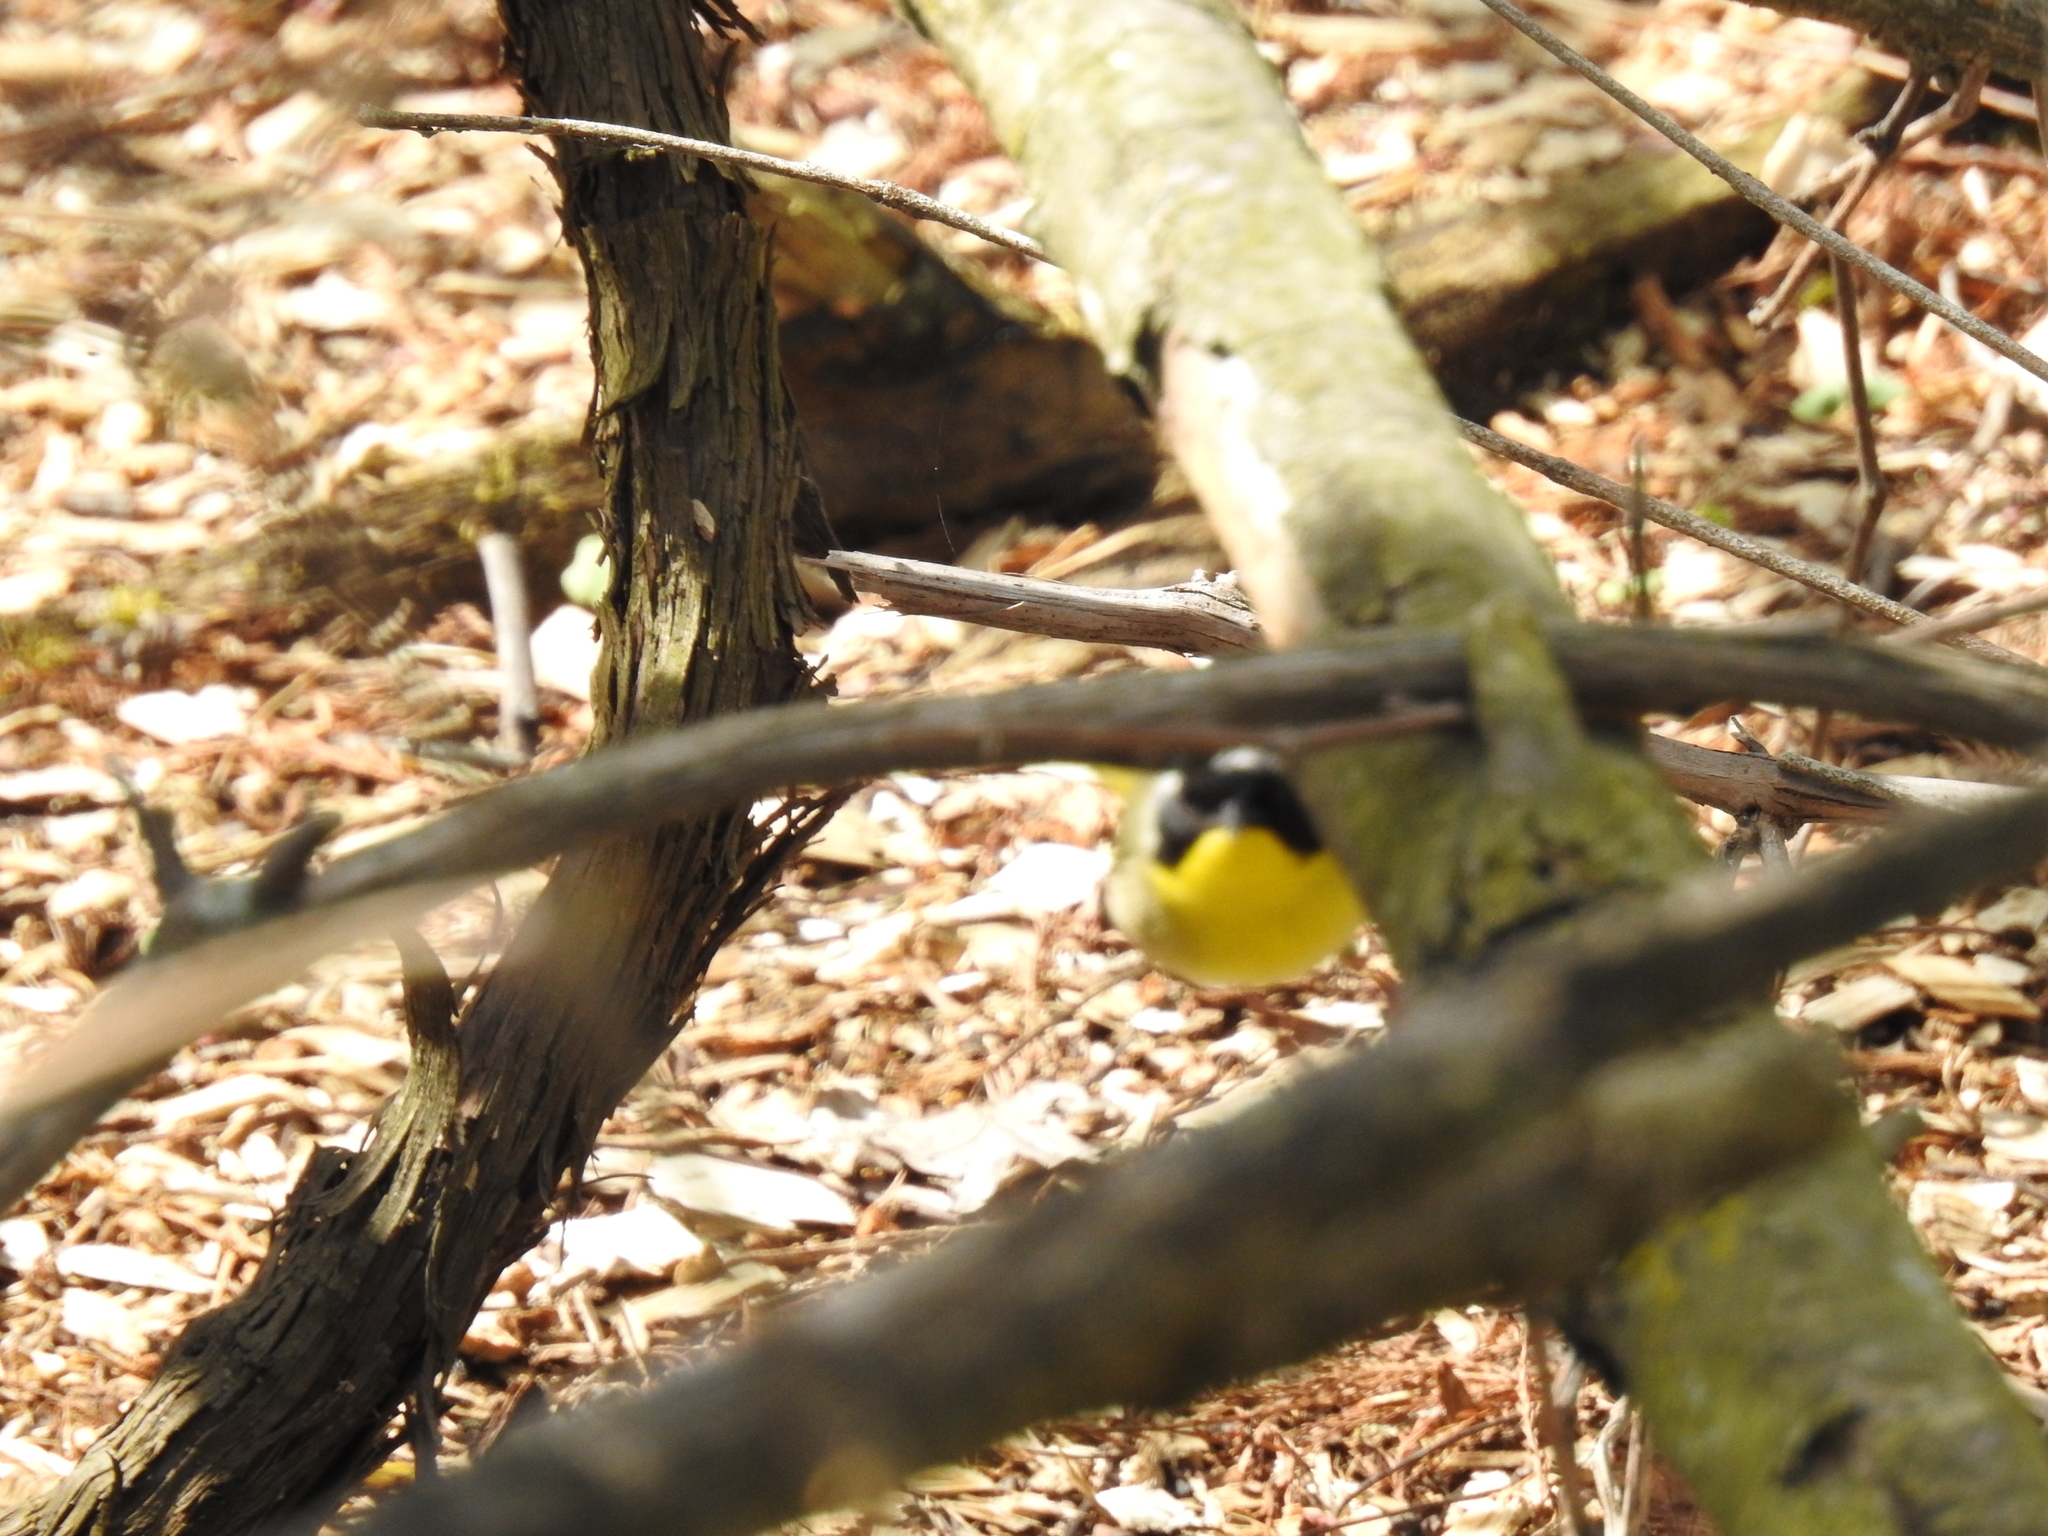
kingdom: Animalia
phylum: Chordata
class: Aves
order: Passeriformes
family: Parulidae
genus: Geothlypis
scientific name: Geothlypis trichas
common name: Common yellowthroat
